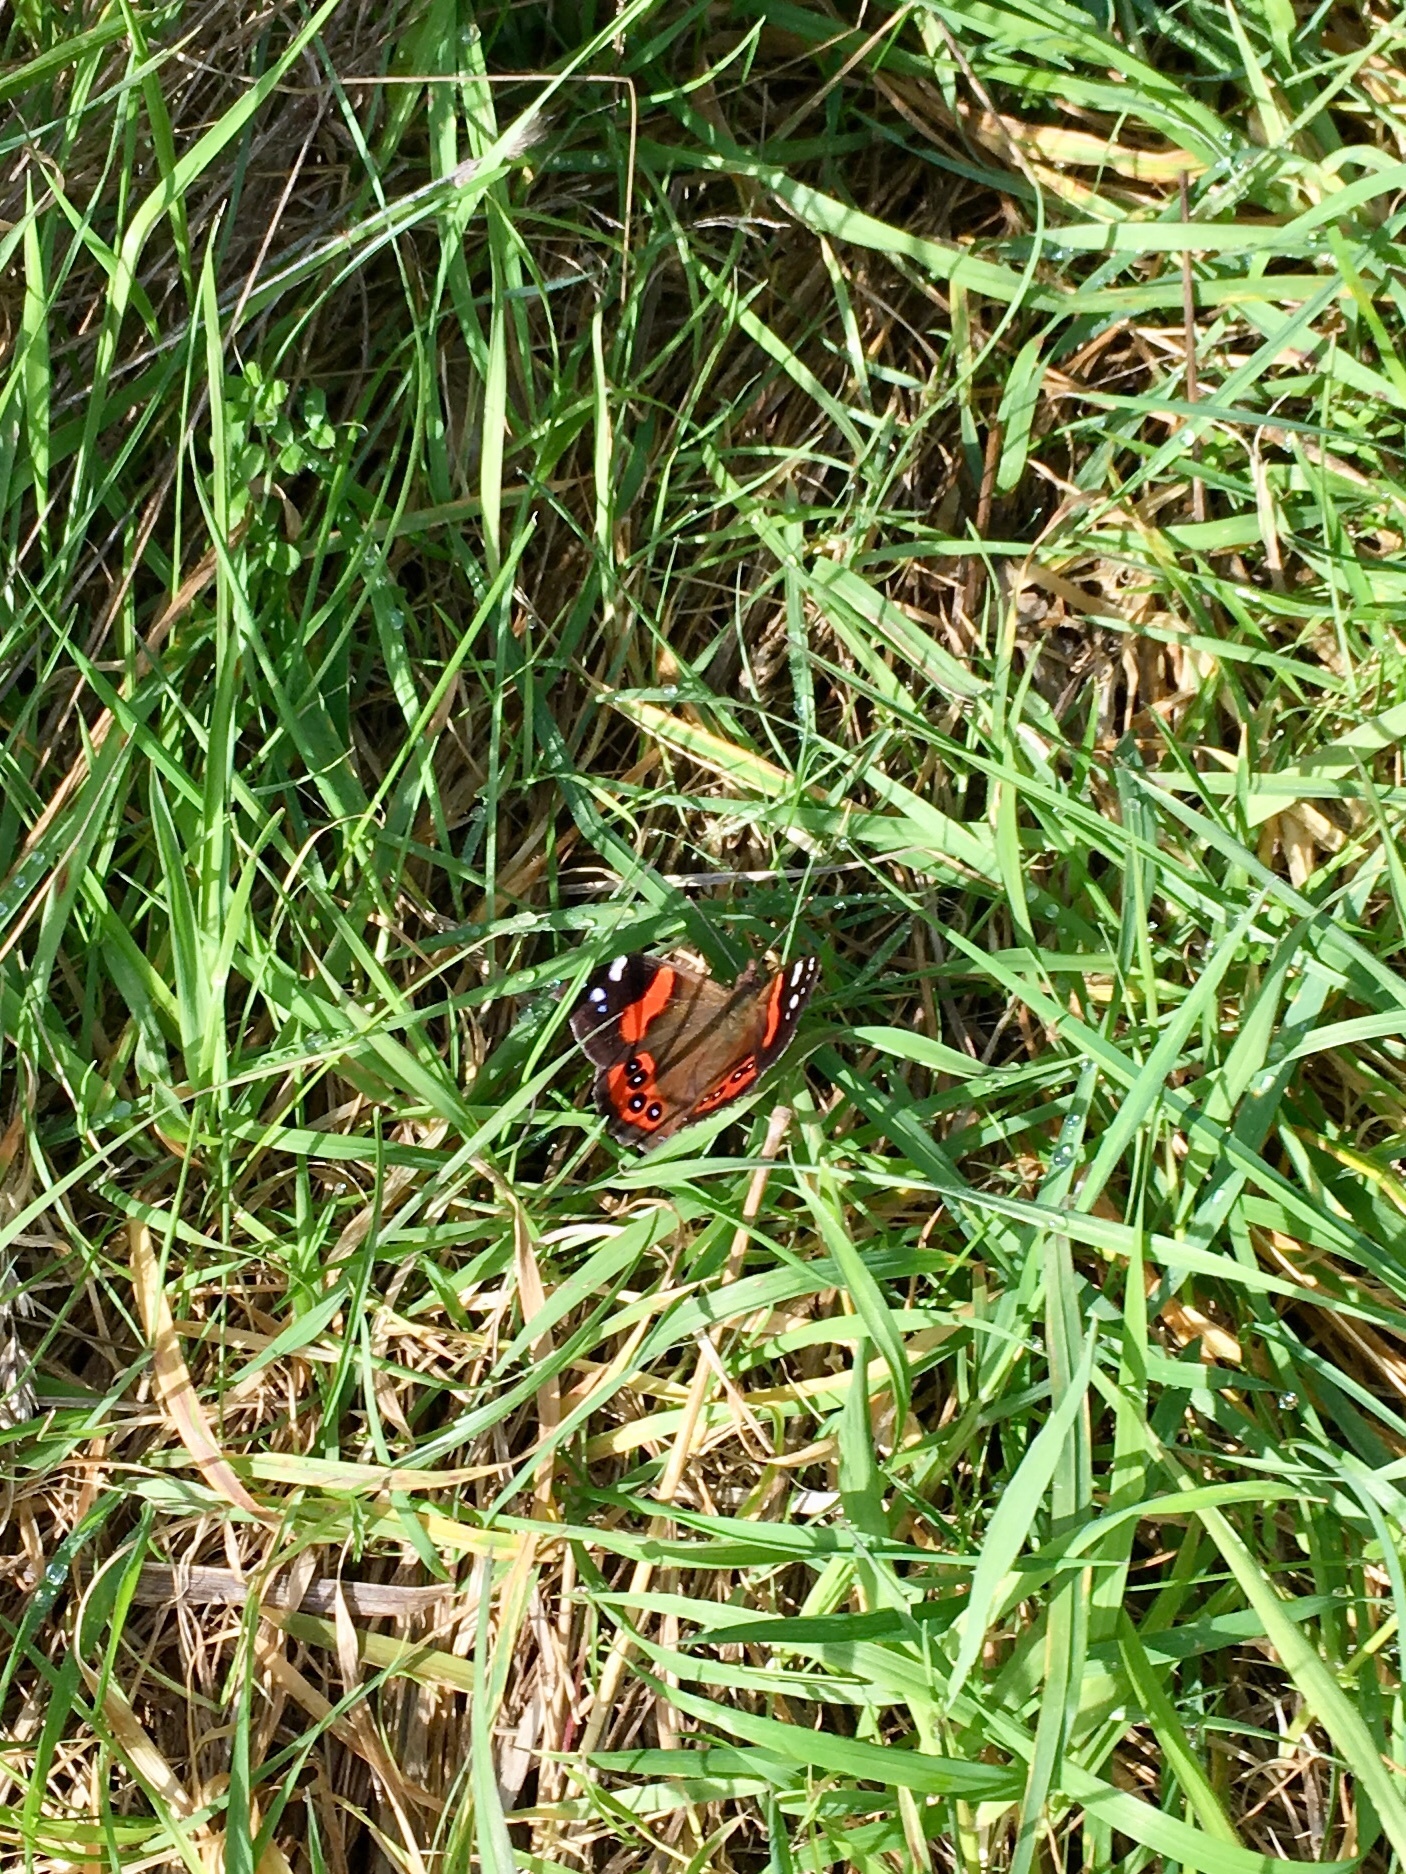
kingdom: Animalia
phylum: Arthropoda
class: Insecta
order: Lepidoptera
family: Nymphalidae
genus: Vanessa
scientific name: Vanessa gonerilla
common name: New zealand red admiral
